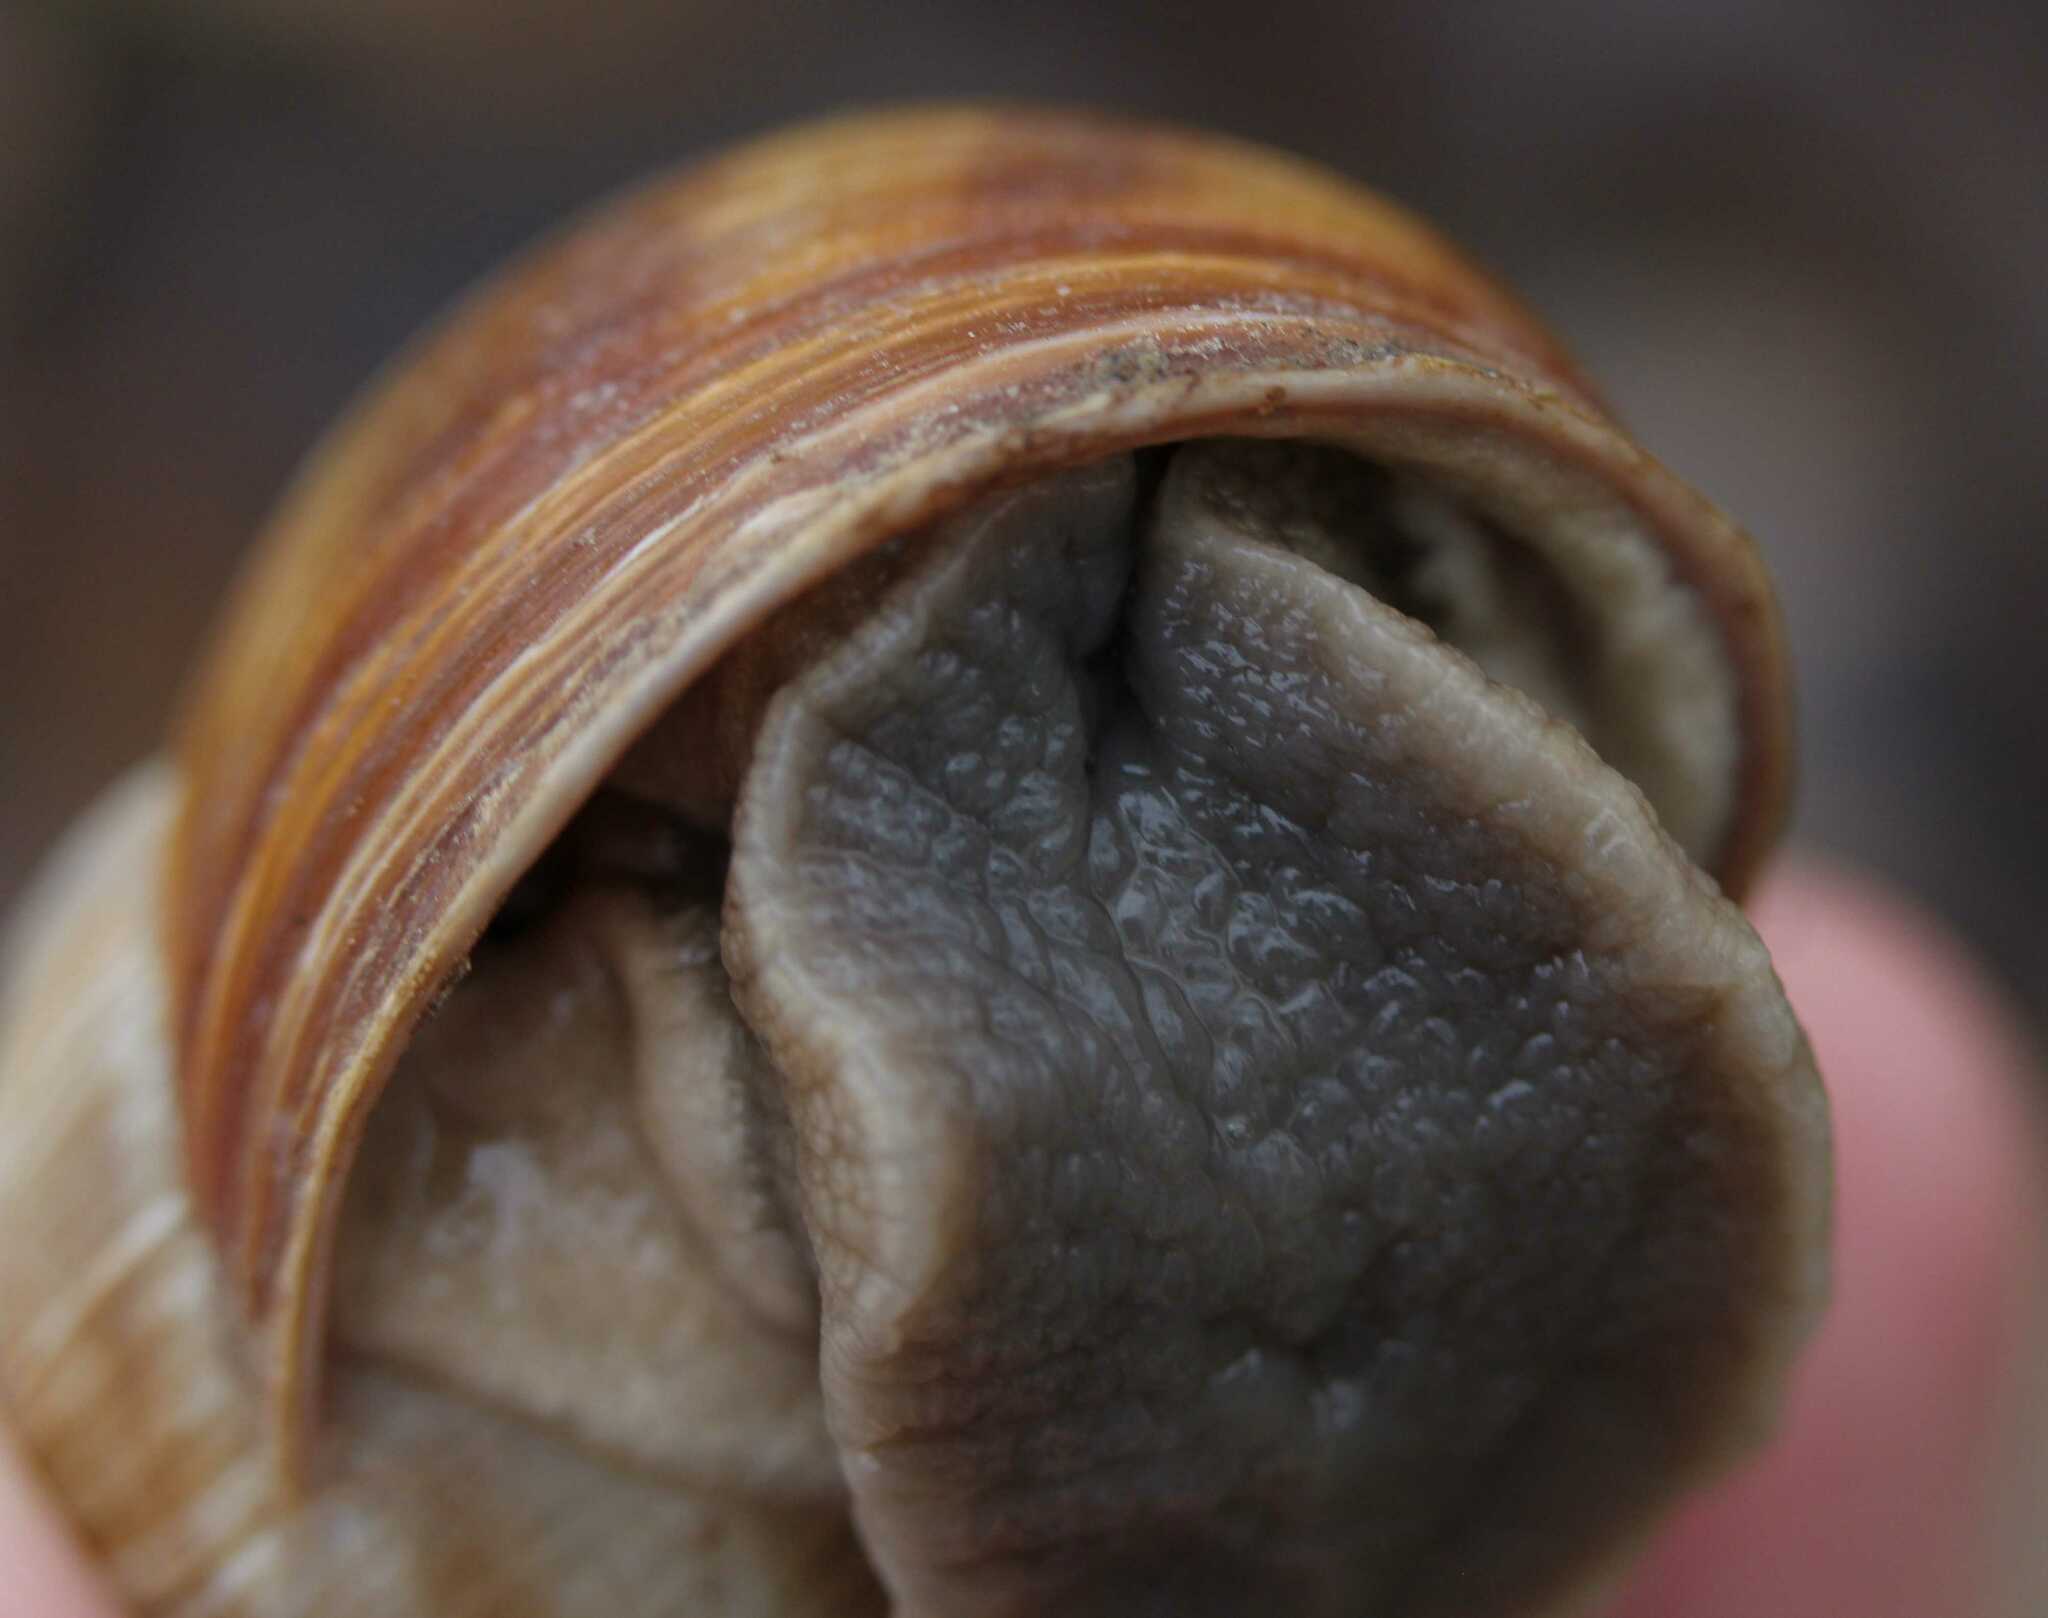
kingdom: Animalia
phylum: Mollusca
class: Gastropoda
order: Stylommatophora
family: Helicidae
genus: Helix
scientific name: Helix pomatia
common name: Roman snail
